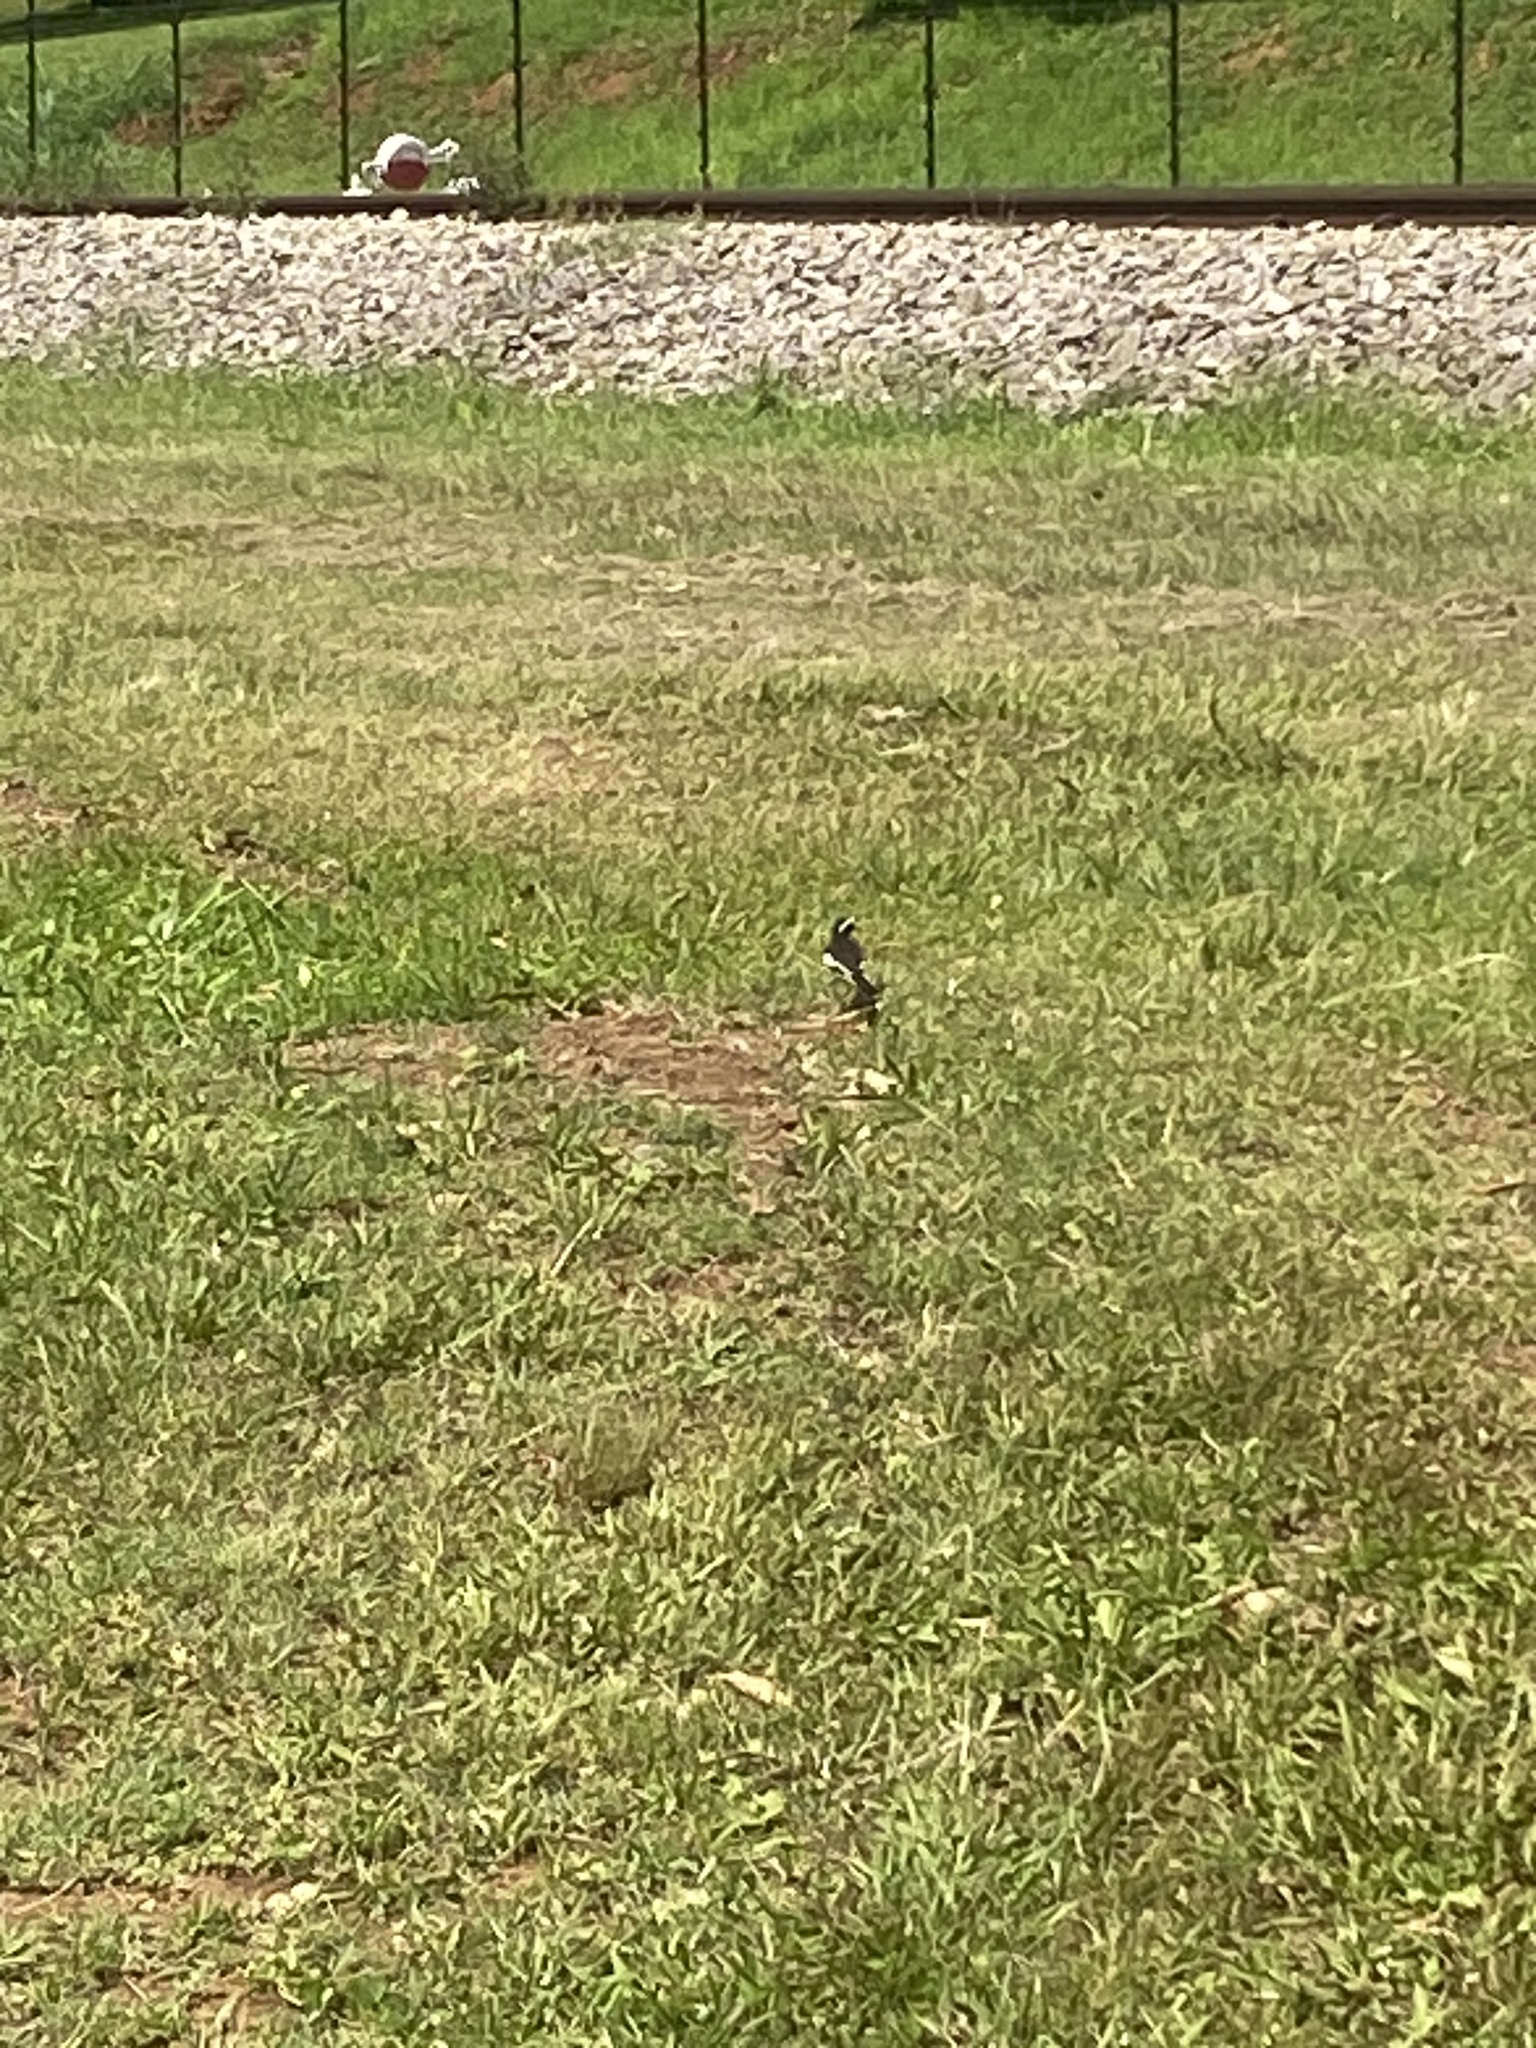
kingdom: Animalia
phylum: Chordata
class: Aves
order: Passeriformes
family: Motacillidae
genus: Motacilla
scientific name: Motacilla aguimp
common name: African pied wagtail
